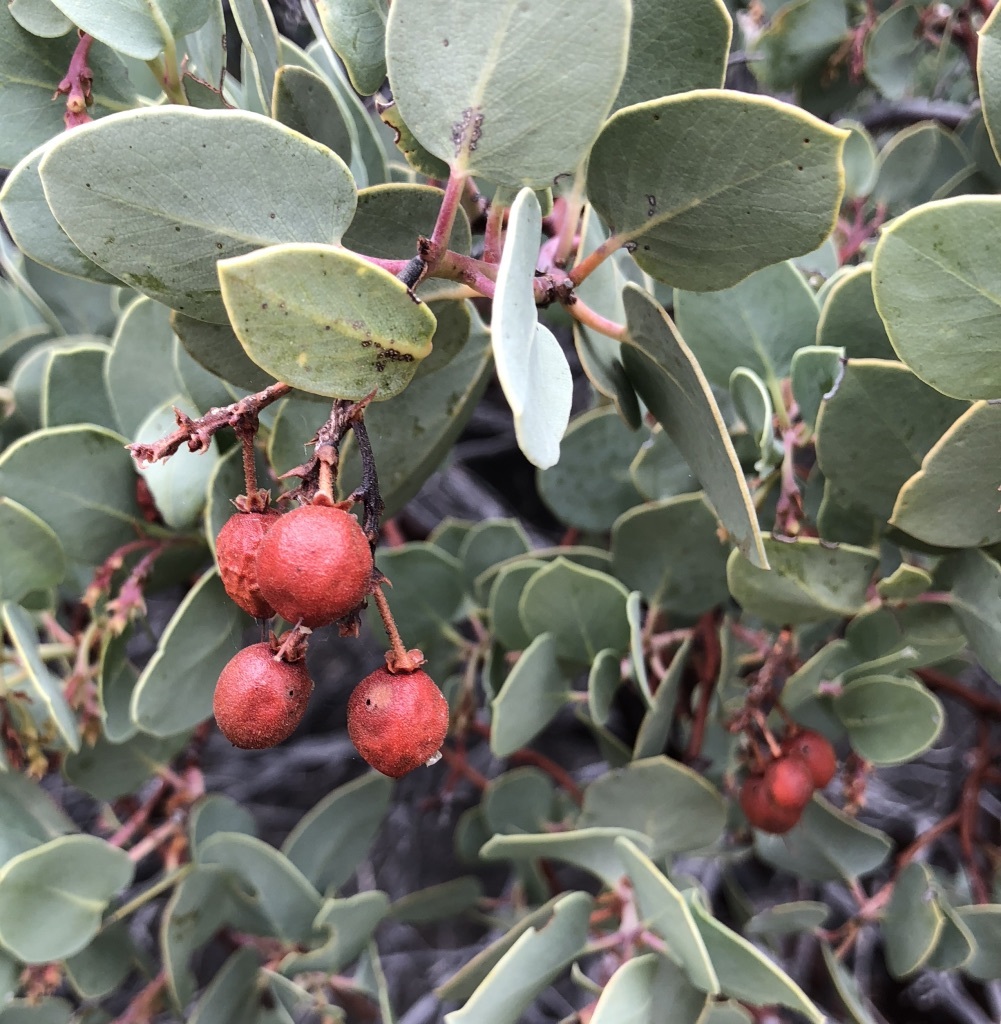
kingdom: Plantae
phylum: Tracheophyta
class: Magnoliopsida
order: Ericales
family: Ericaceae
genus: Arctostaphylos
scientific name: Arctostaphylos glauca
